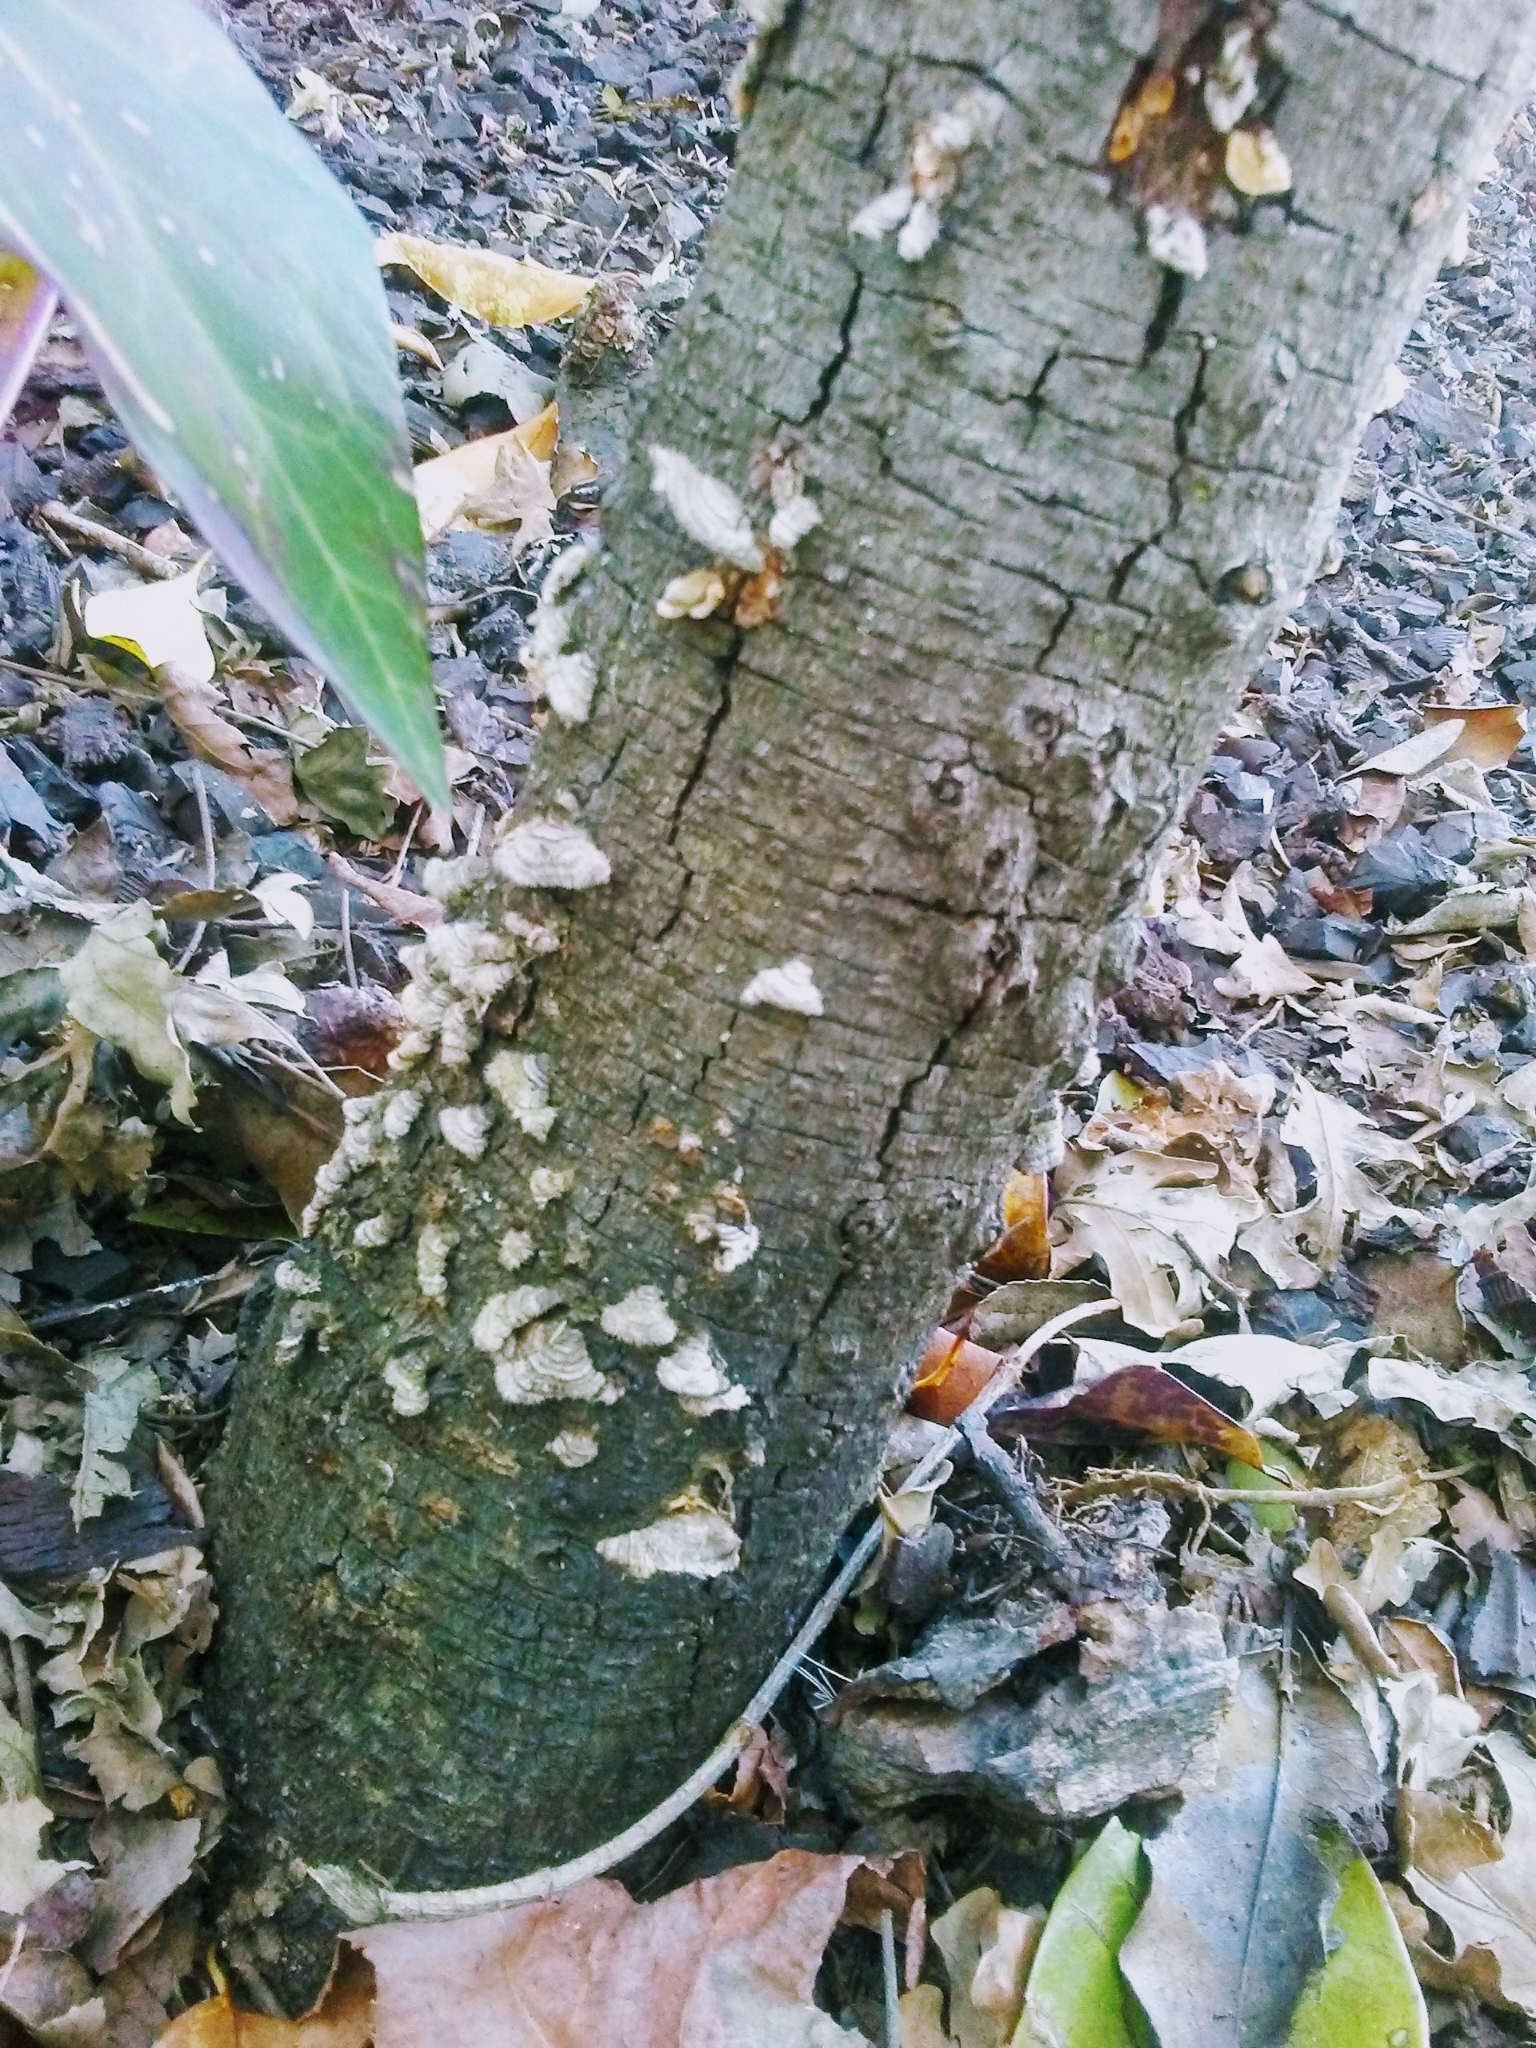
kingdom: Fungi
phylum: Basidiomycota
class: Agaricomycetes
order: Russulales
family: Stereaceae
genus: Stereum
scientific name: Stereum hirsutum
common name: Hairy curtain crust
